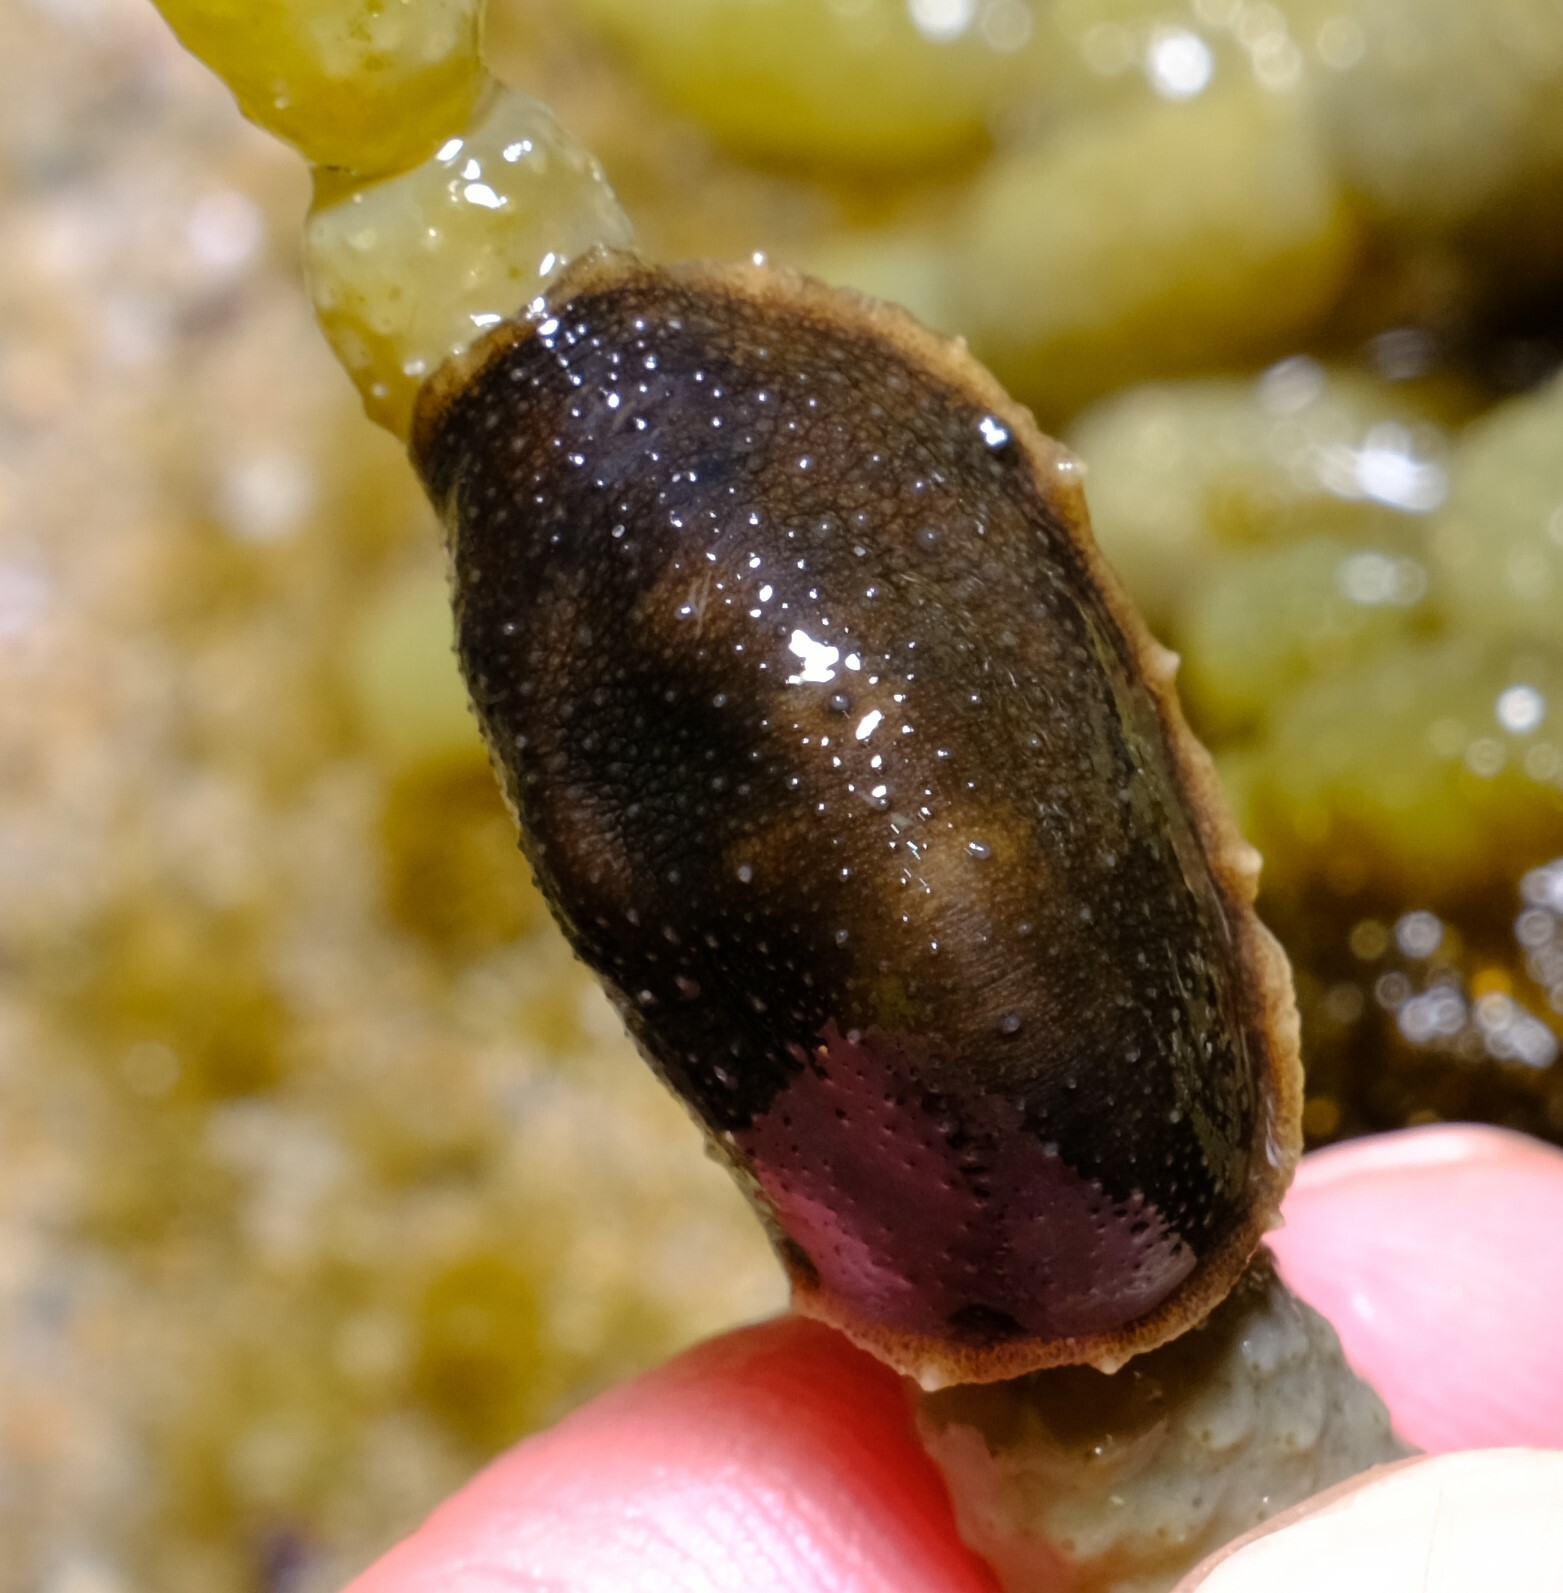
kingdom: Animalia
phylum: Mollusca
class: Gastropoda
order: Systellommatophora
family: Onchidiidae
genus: Onchidella
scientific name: Onchidella nigricans
